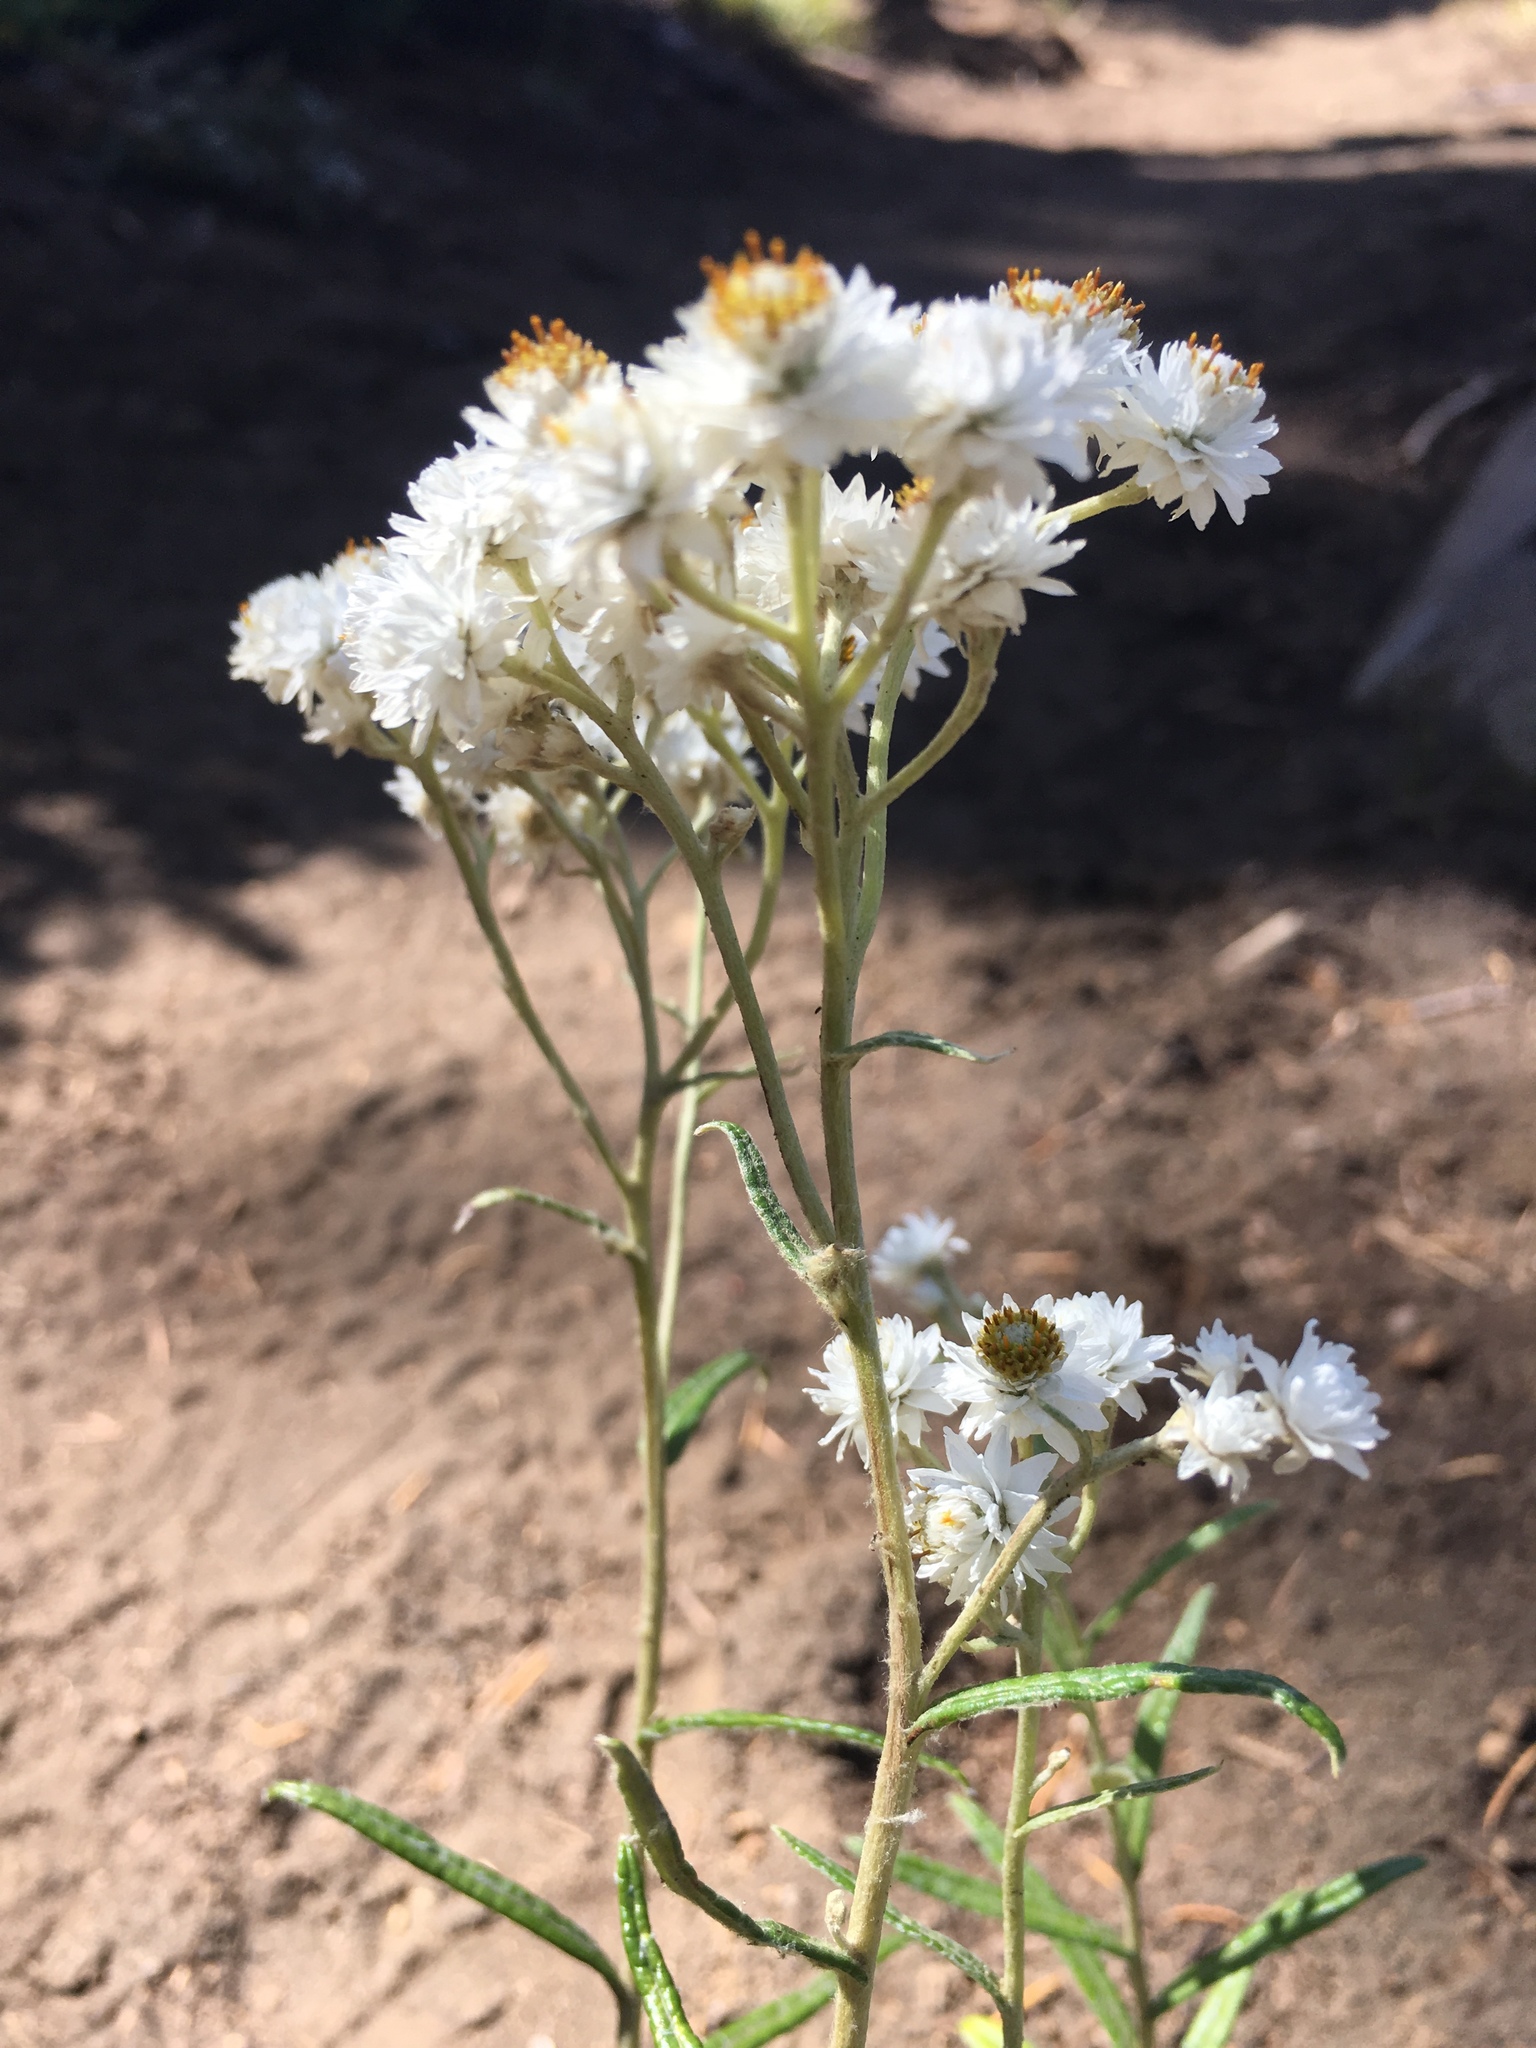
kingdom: Plantae
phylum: Tracheophyta
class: Magnoliopsida
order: Asterales
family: Asteraceae
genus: Anaphalis
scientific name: Anaphalis margaritacea
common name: Pearly everlasting
